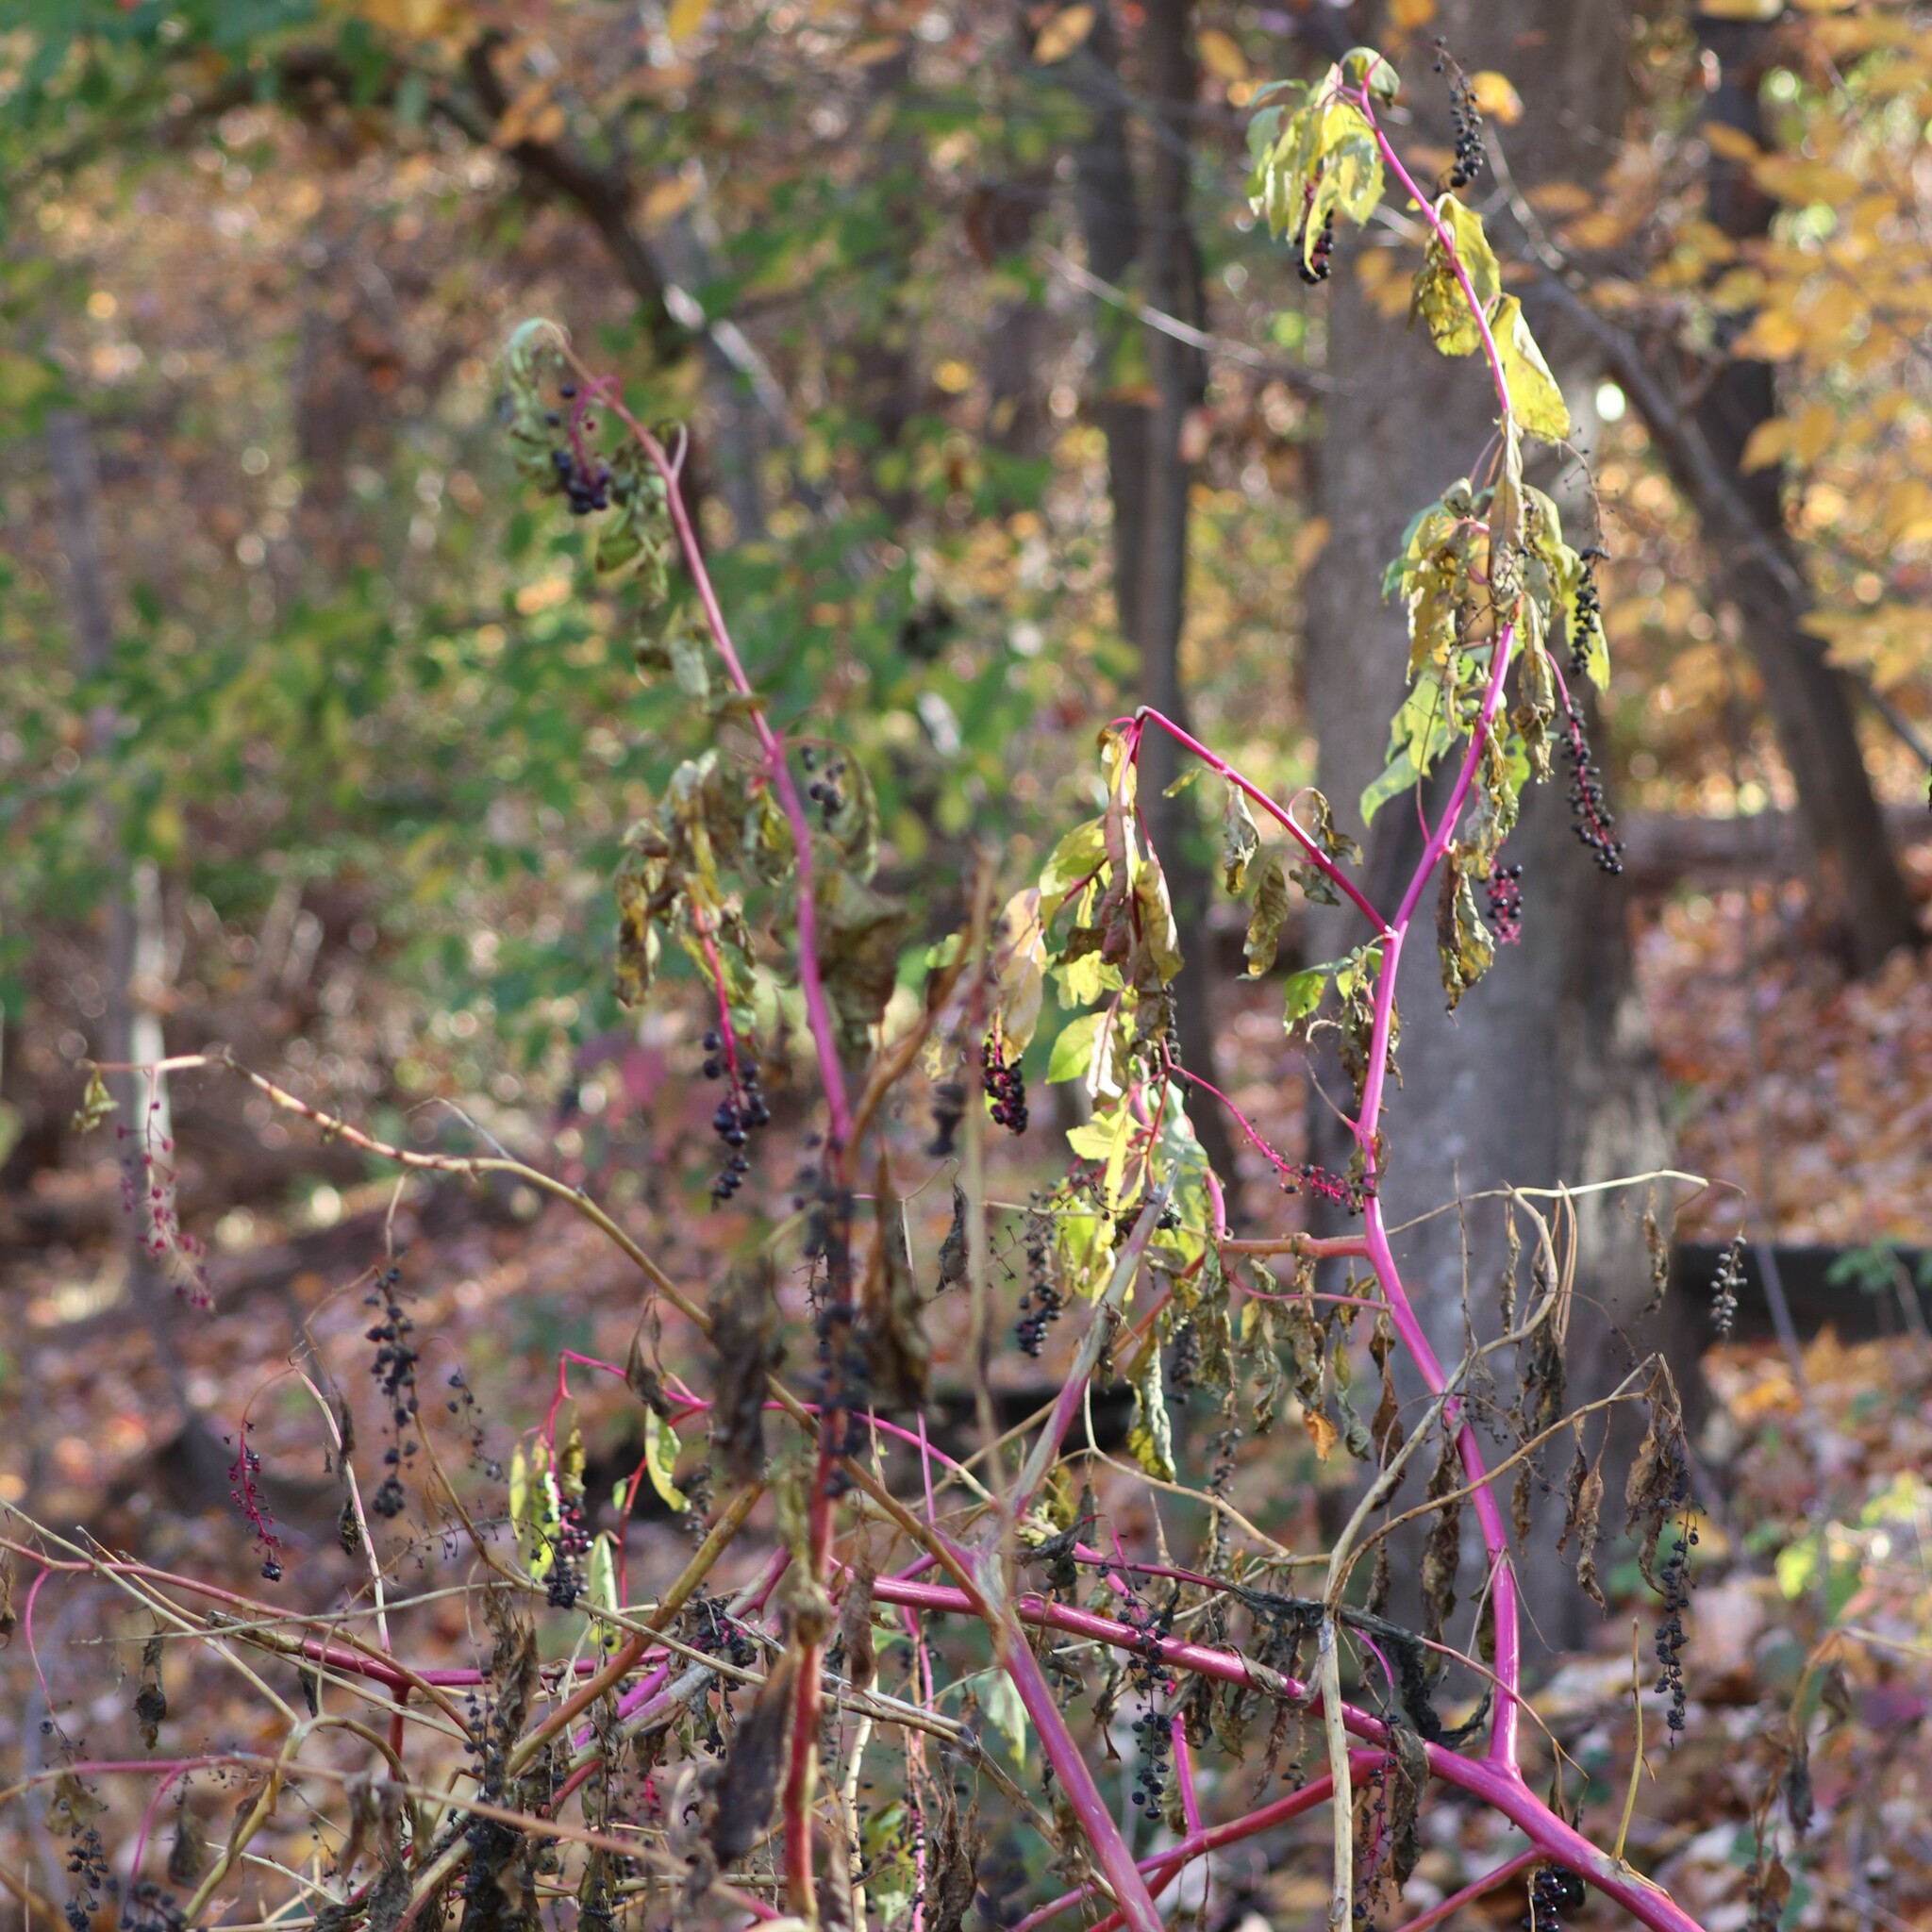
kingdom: Plantae
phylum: Tracheophyta
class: Magnoliopsida
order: Caryophyllales
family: Phytolaccaceae
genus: Phytolacca
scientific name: Phytolacca americana
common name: American pokeweed
